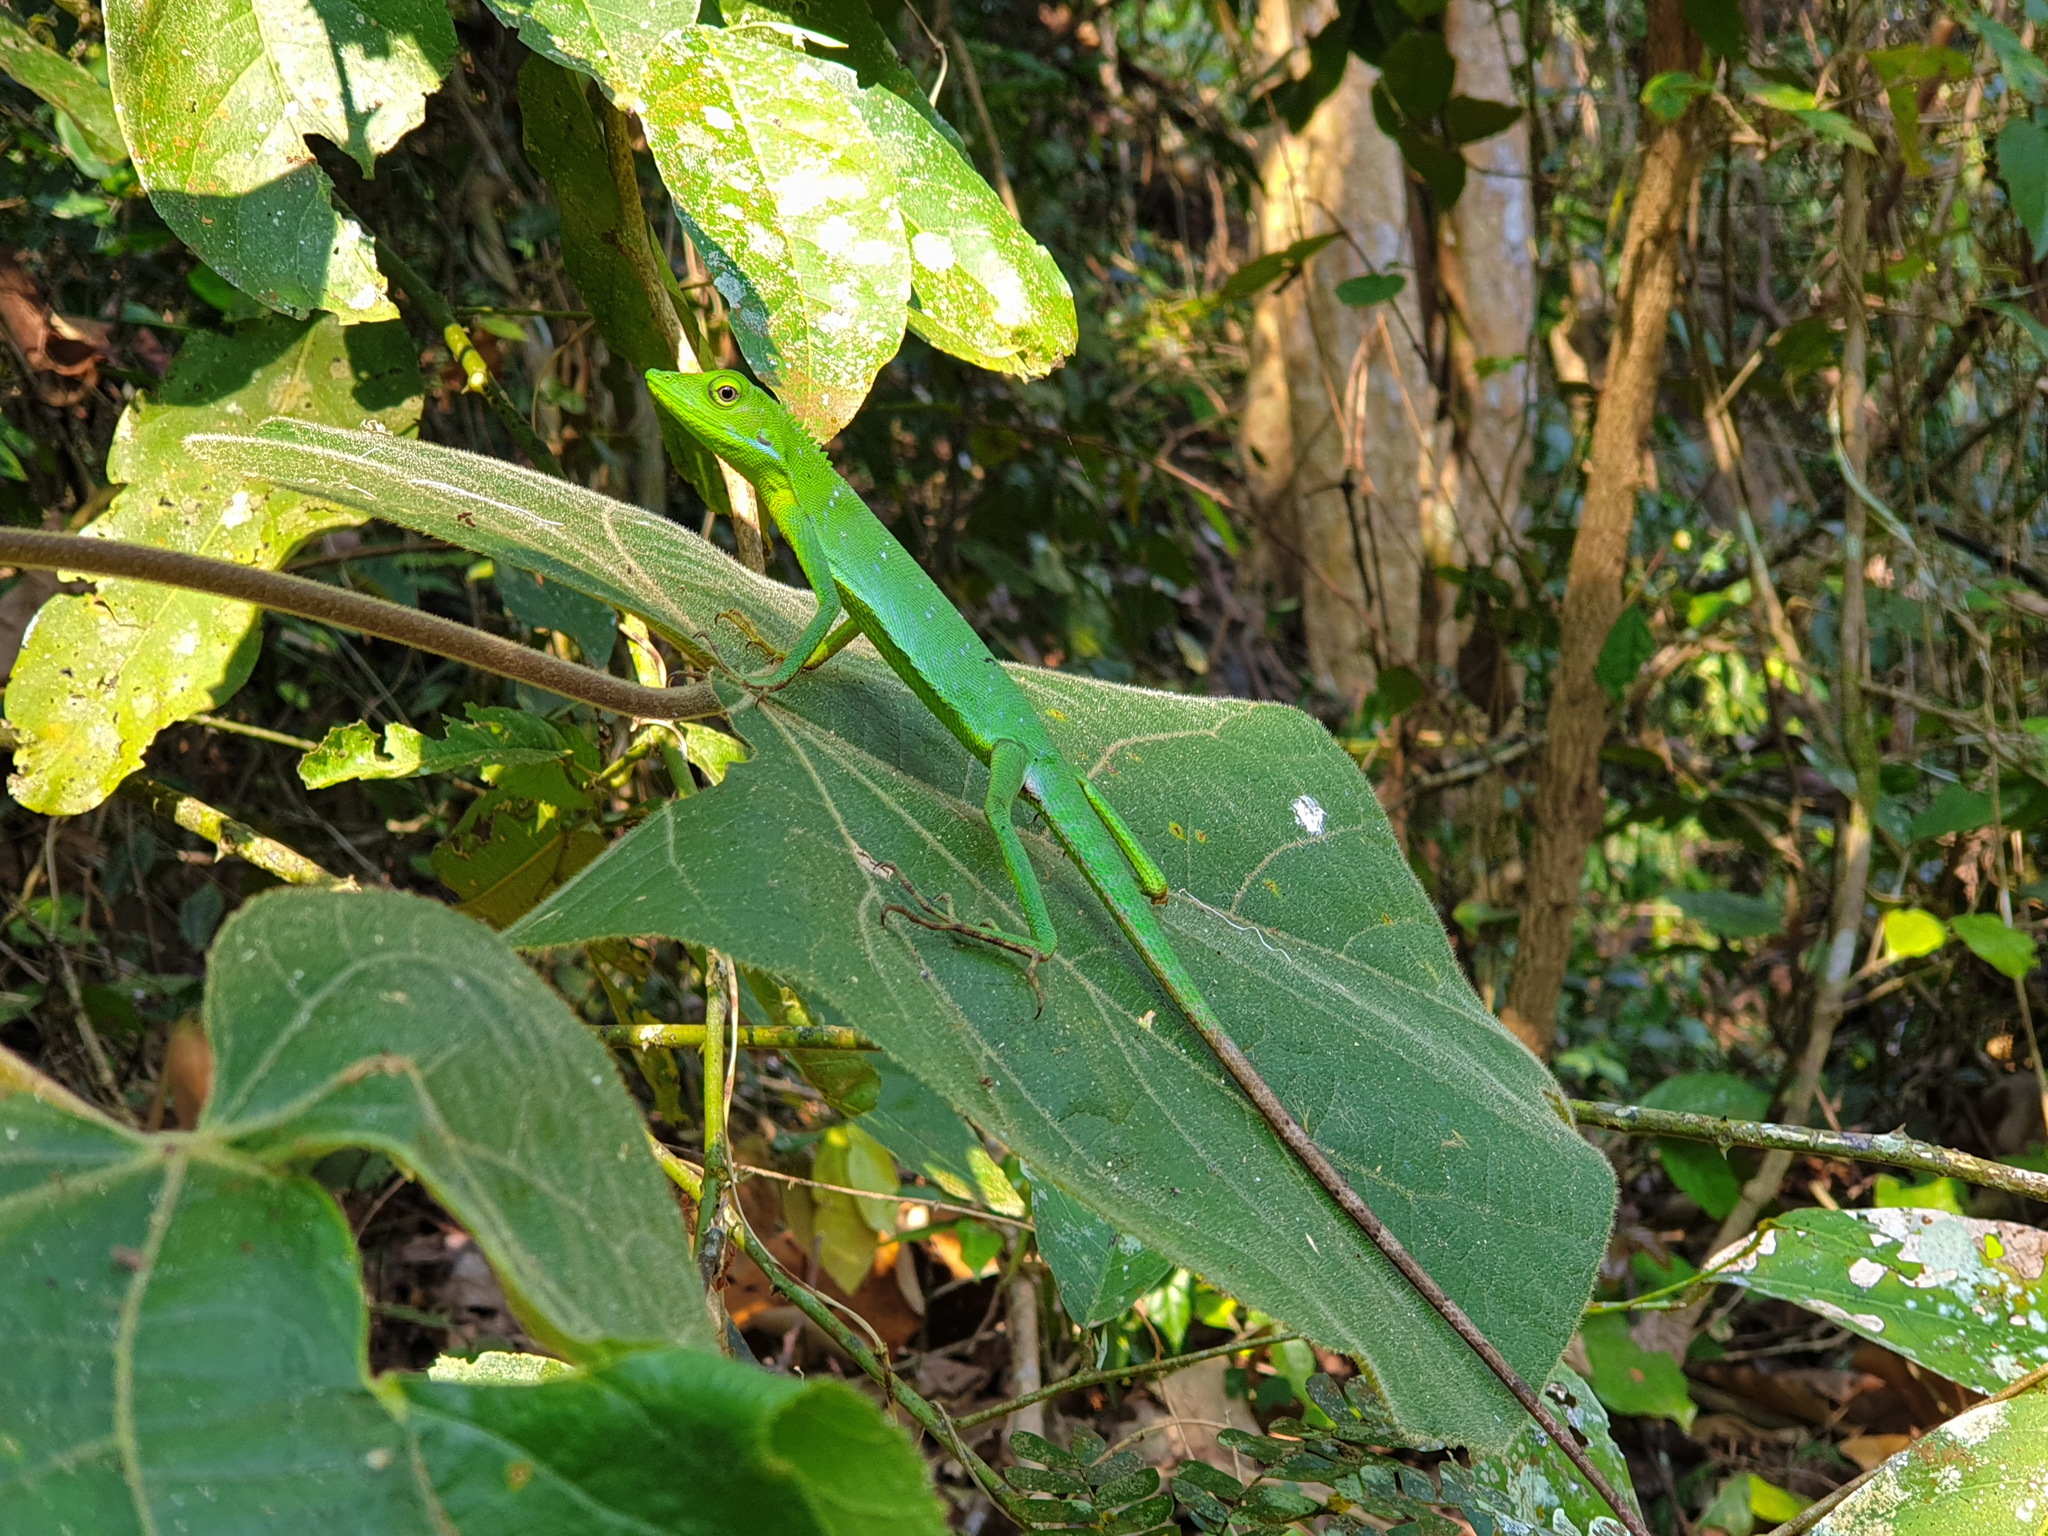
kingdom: Animalia
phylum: Chordata
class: Squamata
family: Agamidae
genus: Bronchocela
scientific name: Bronchocela burmana
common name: Burmese green crested lizard
